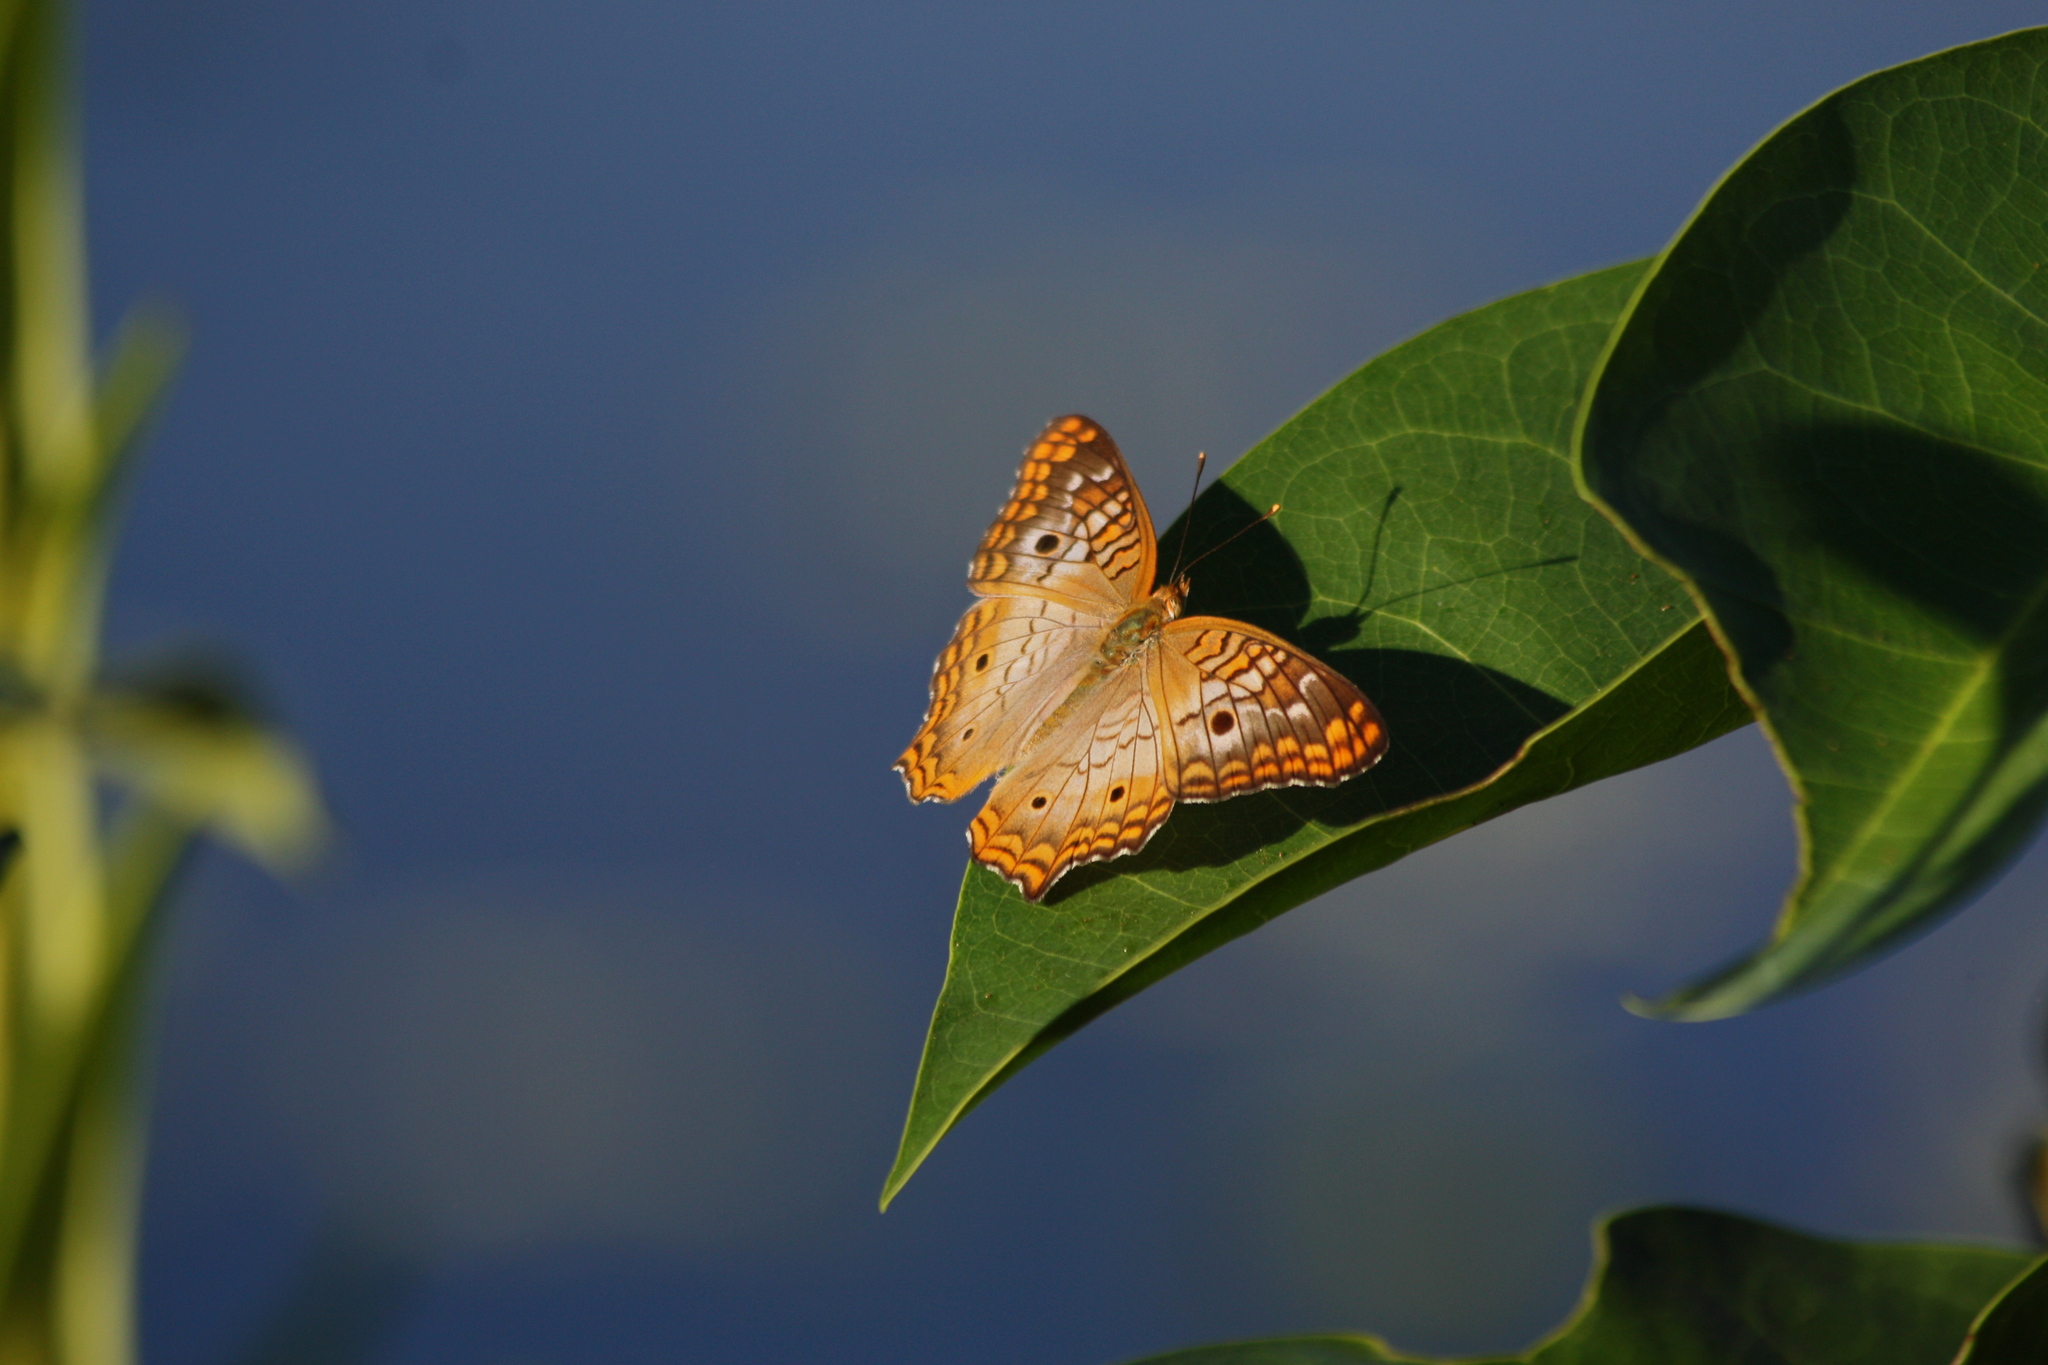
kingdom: Animalia
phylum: Arthropoda
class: Insecta
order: Lepidoptera
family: Nymphalidae
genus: Anartia
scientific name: Anartia jatrophae
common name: White peacock
